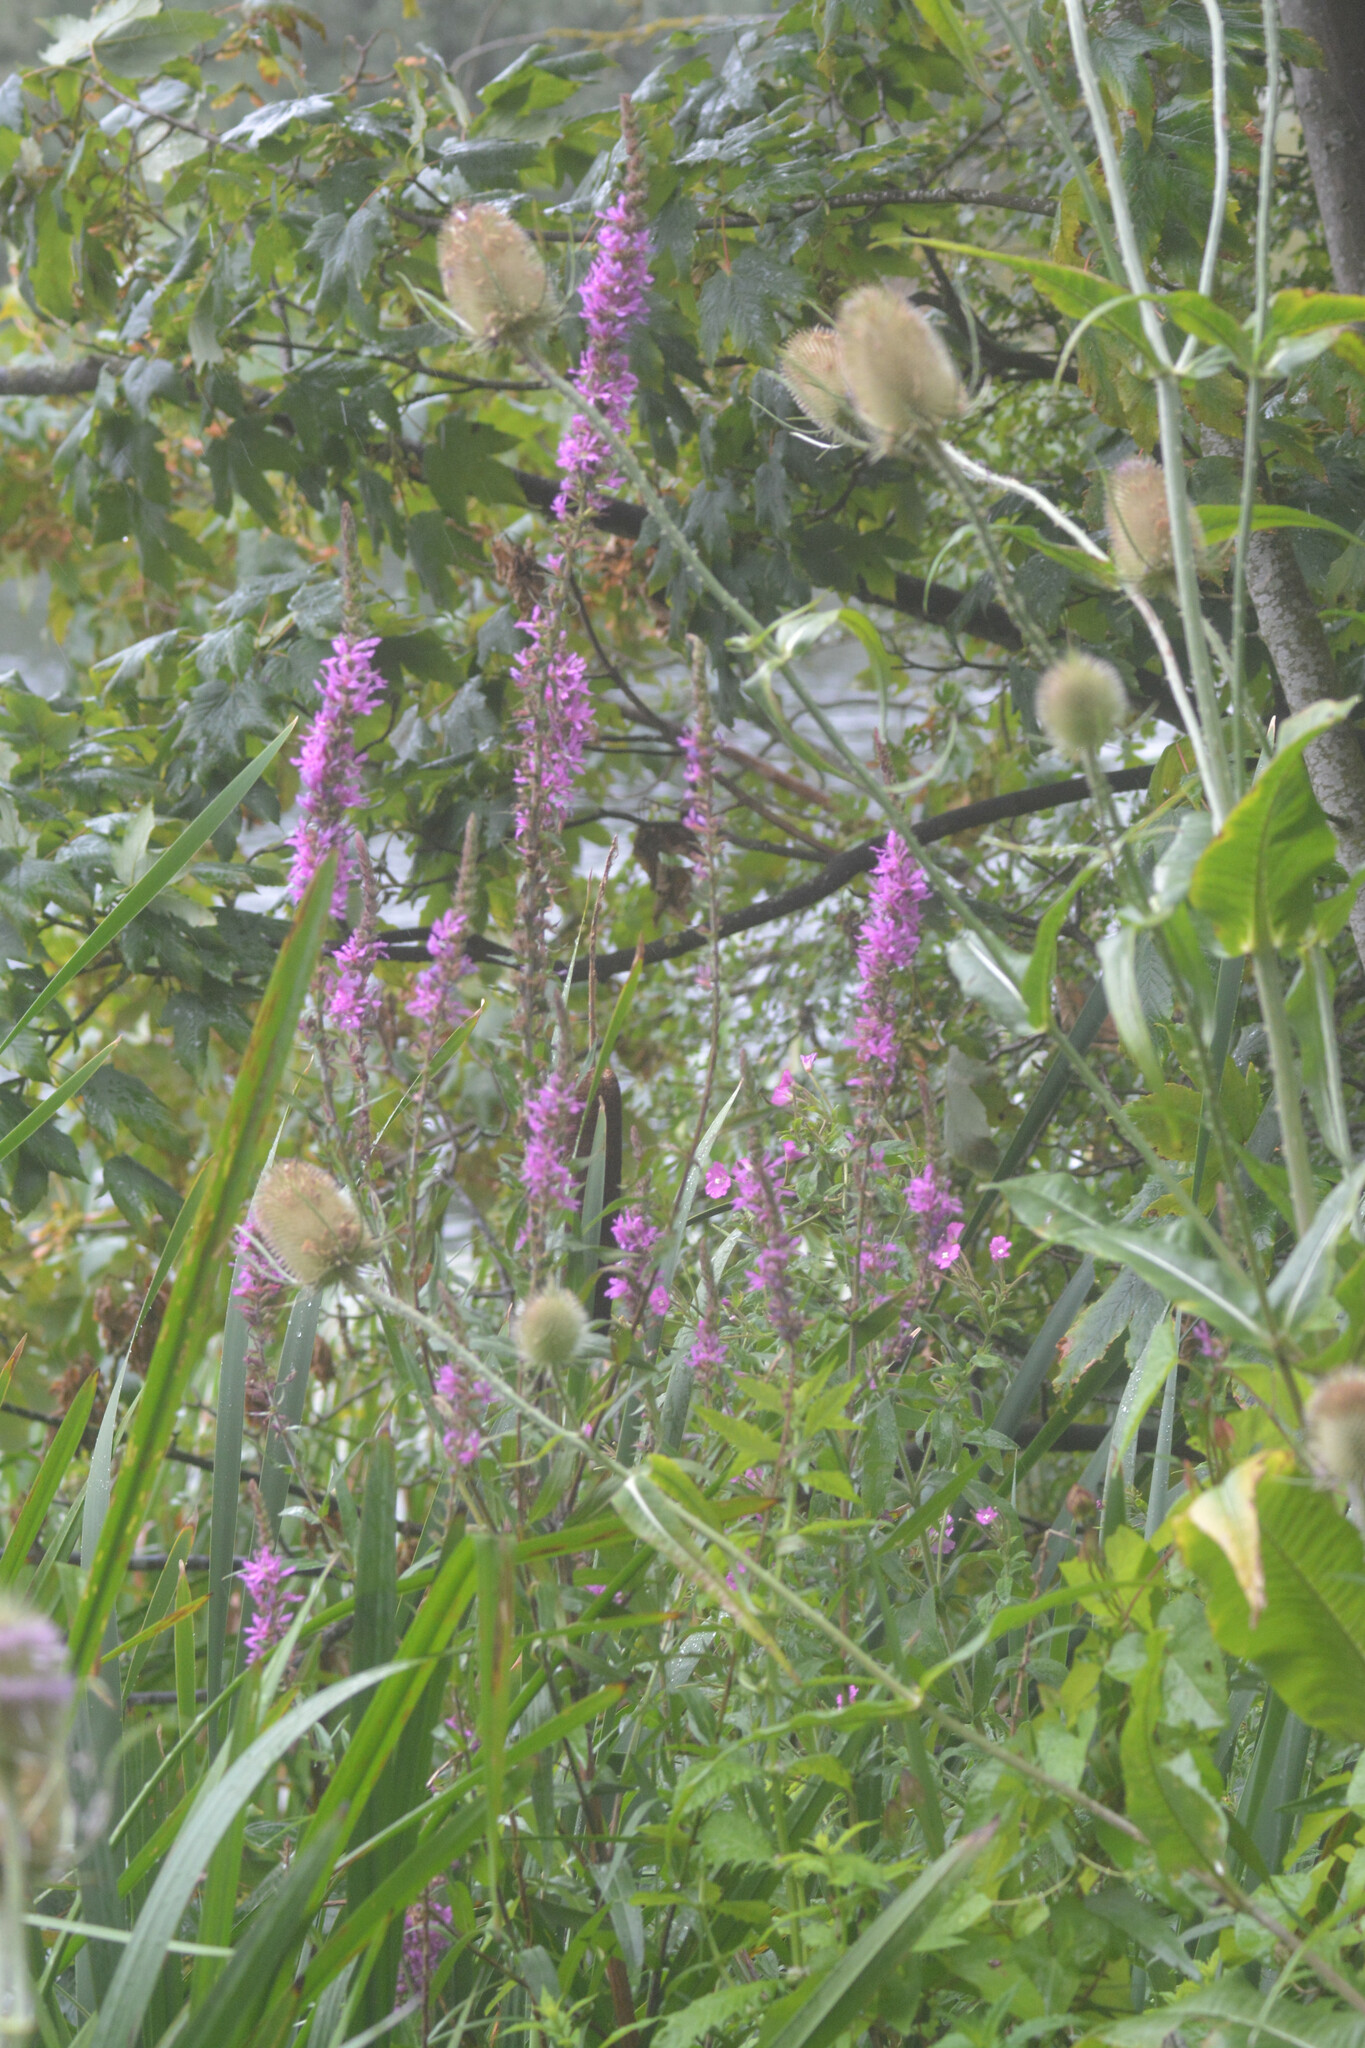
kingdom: Plantae
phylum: Tracheophyta
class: Magnoliopsida
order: Myrtales
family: Lythraceae
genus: Lythrum
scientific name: Lythrum salicaria
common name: Purple loosestrife
